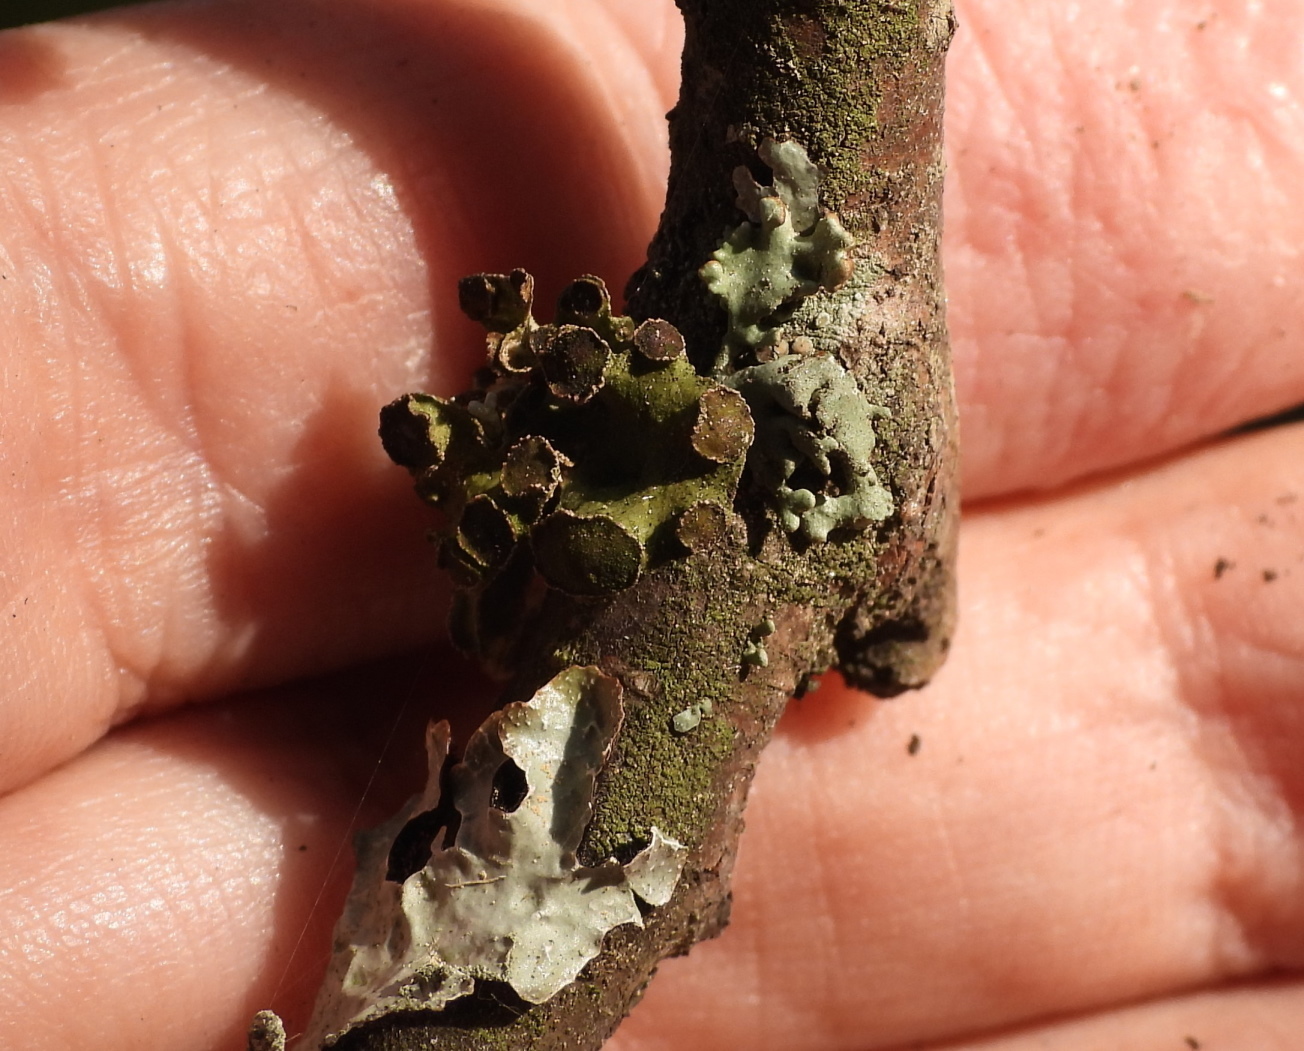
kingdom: Fungi
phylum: Ascomycota
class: Lecanoromycetes
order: Lecanorales
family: Parmeliaceae
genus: Cetraria
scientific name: Cetraria sepincola
